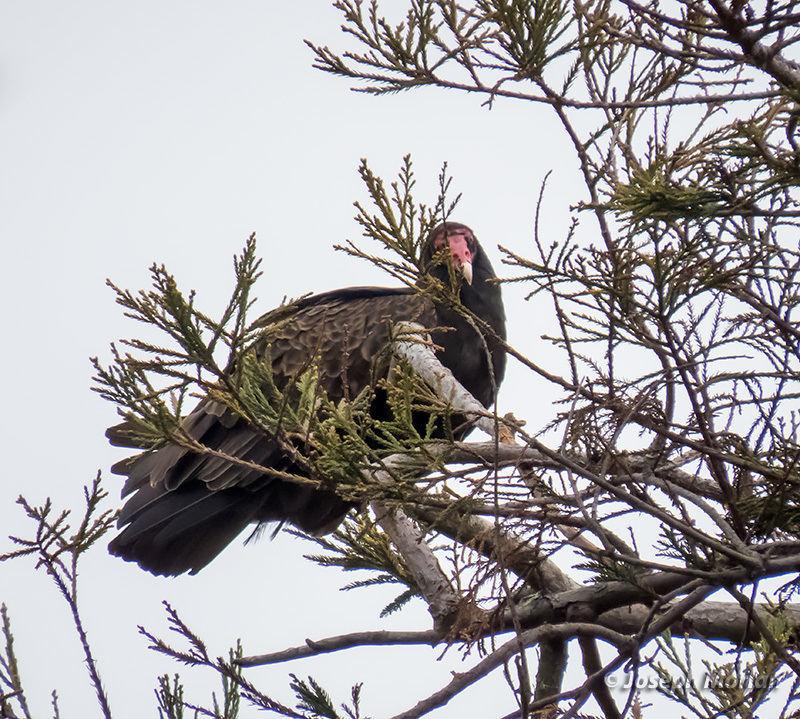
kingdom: Animalia
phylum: Chordata
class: Aves
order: Accipitriformes
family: Cathartidae
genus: Cathartes
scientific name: Cathartes aura
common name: Turkey vulture
